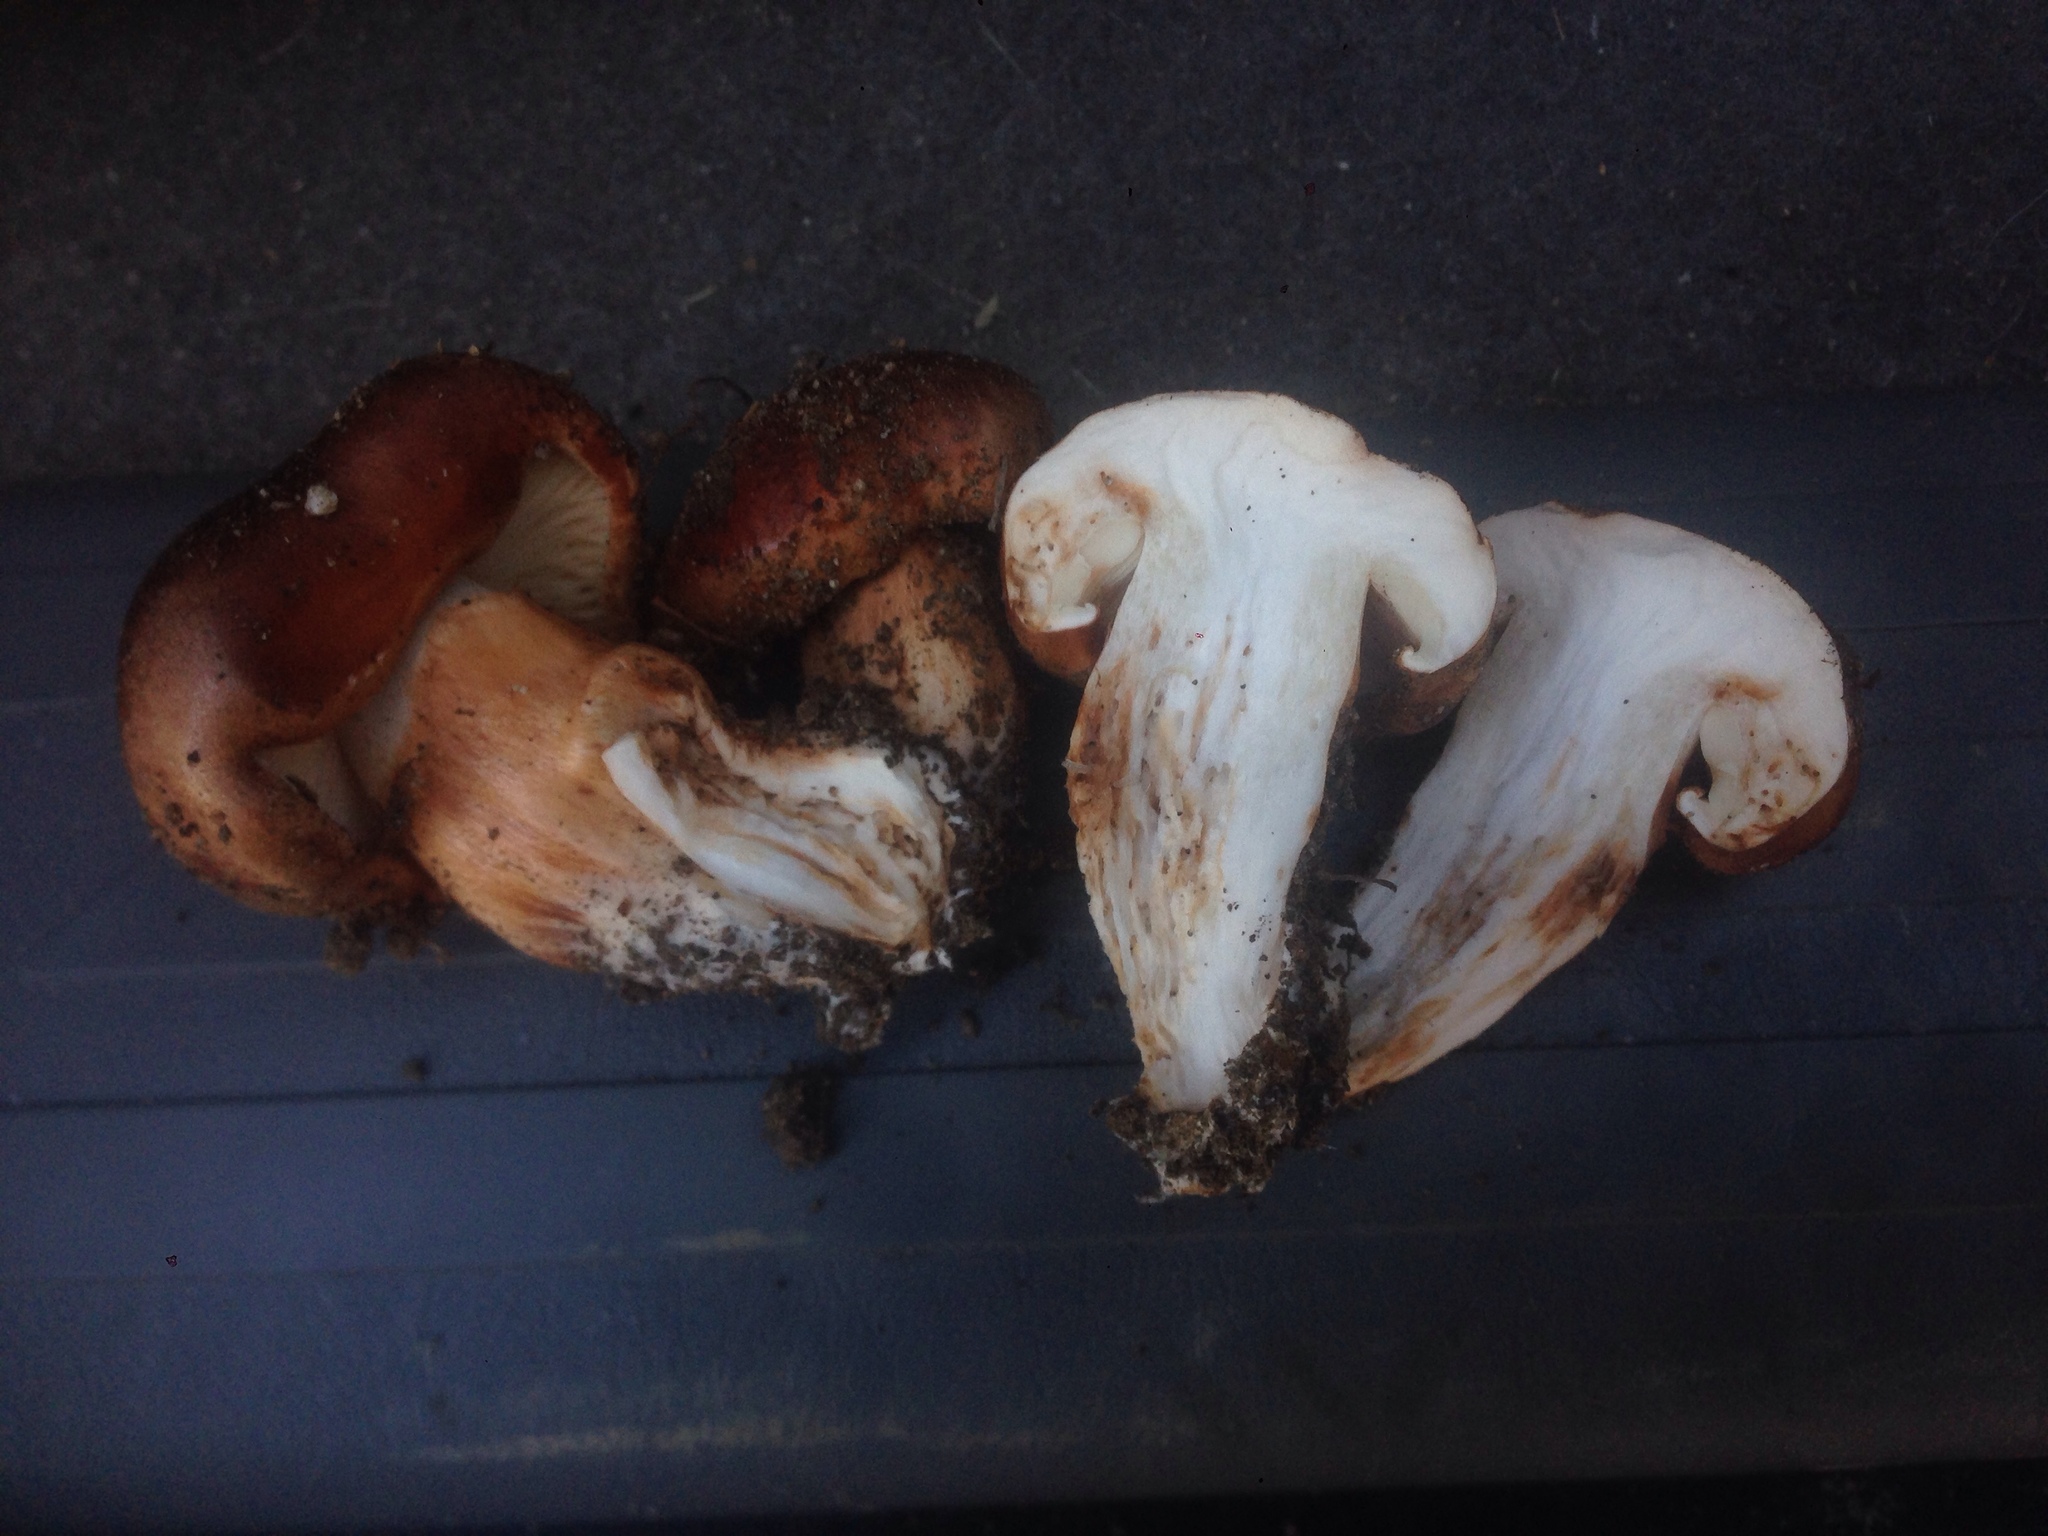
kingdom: Fungi
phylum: Basidiomycota
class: Agaricomycetes
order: Agaricales
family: Tricholomataceae
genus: Tricholoma
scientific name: Tricholoma fracticum
